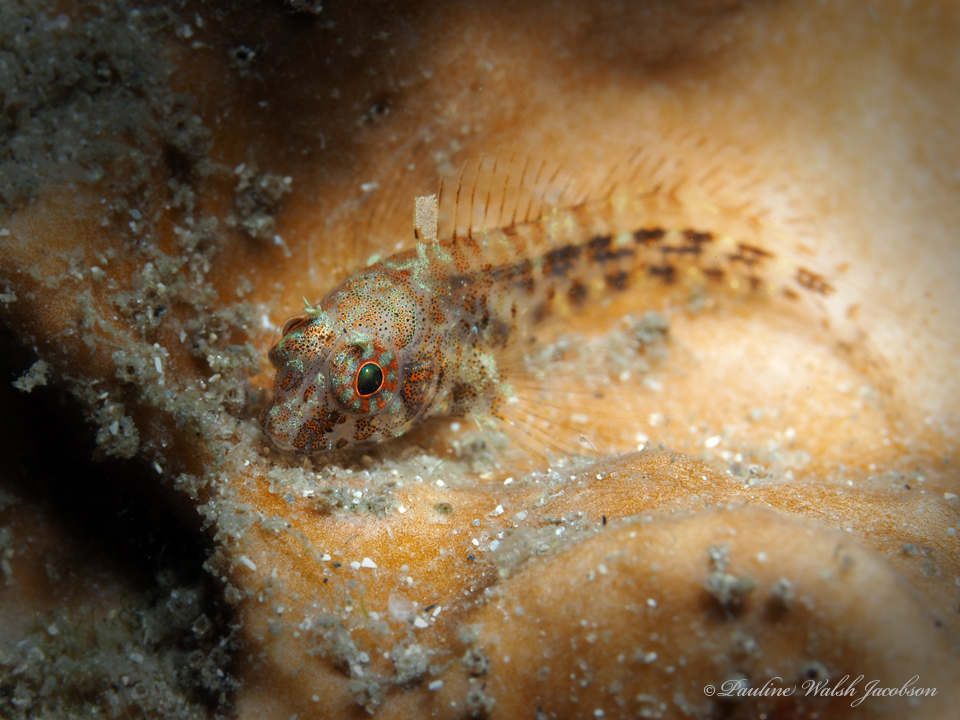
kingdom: Animalia
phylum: Chordata
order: Perciformes
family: Blenniidae
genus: Hypleurochilus
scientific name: Hypleurochilus pseudoaequipinnis
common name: Oyster blenny
